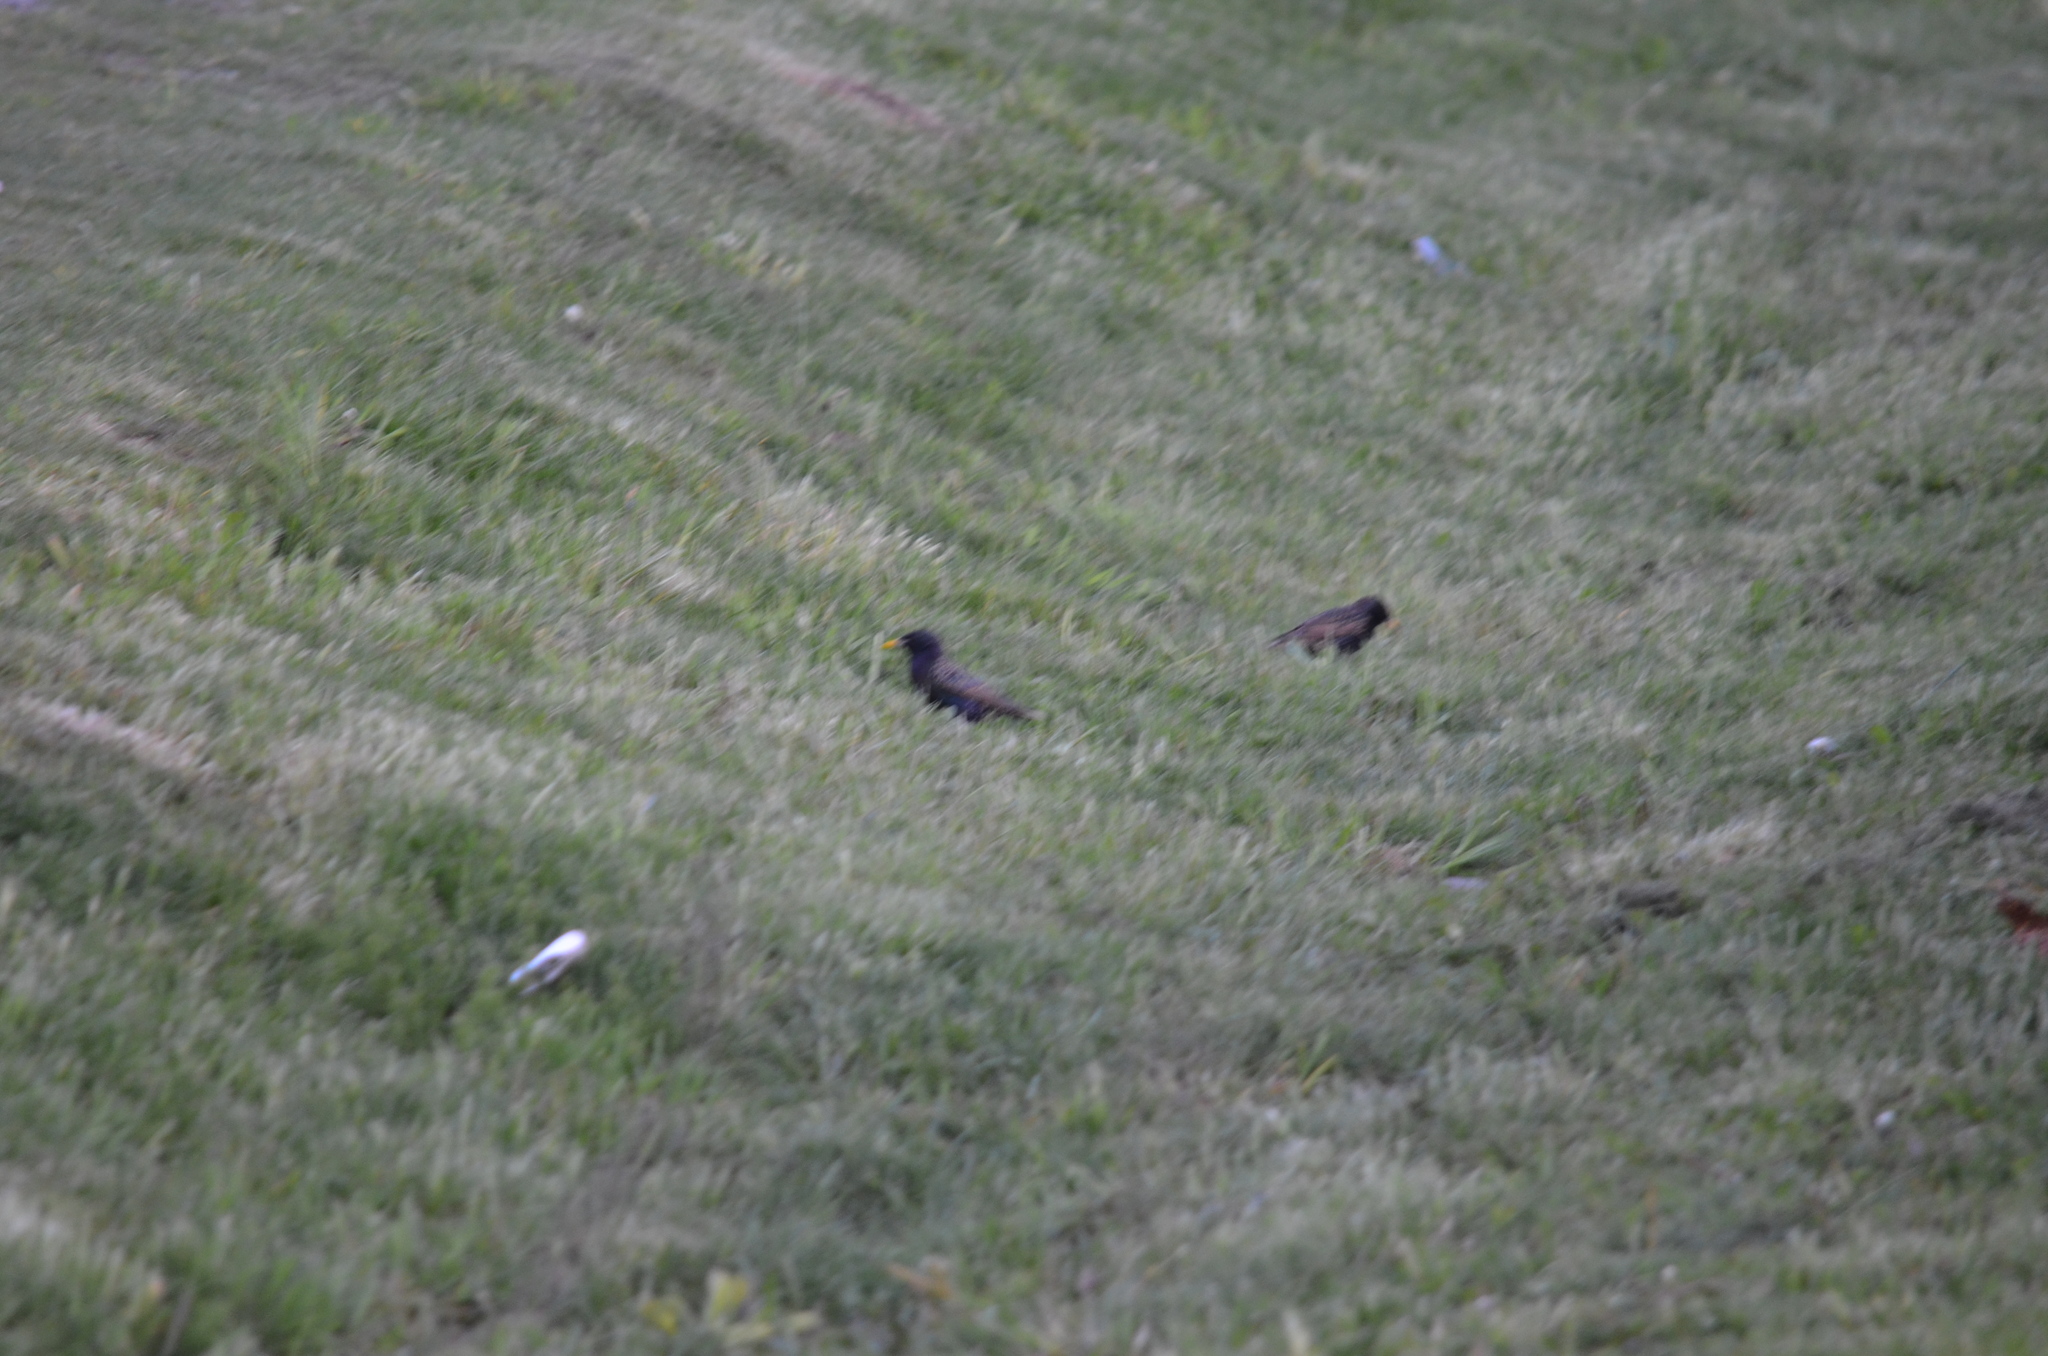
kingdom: Animalia
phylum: Chordata
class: Aves
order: Passeriformes
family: Sturnidae
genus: Sturnus
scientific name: Sturnus vulgaris
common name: Common starling
